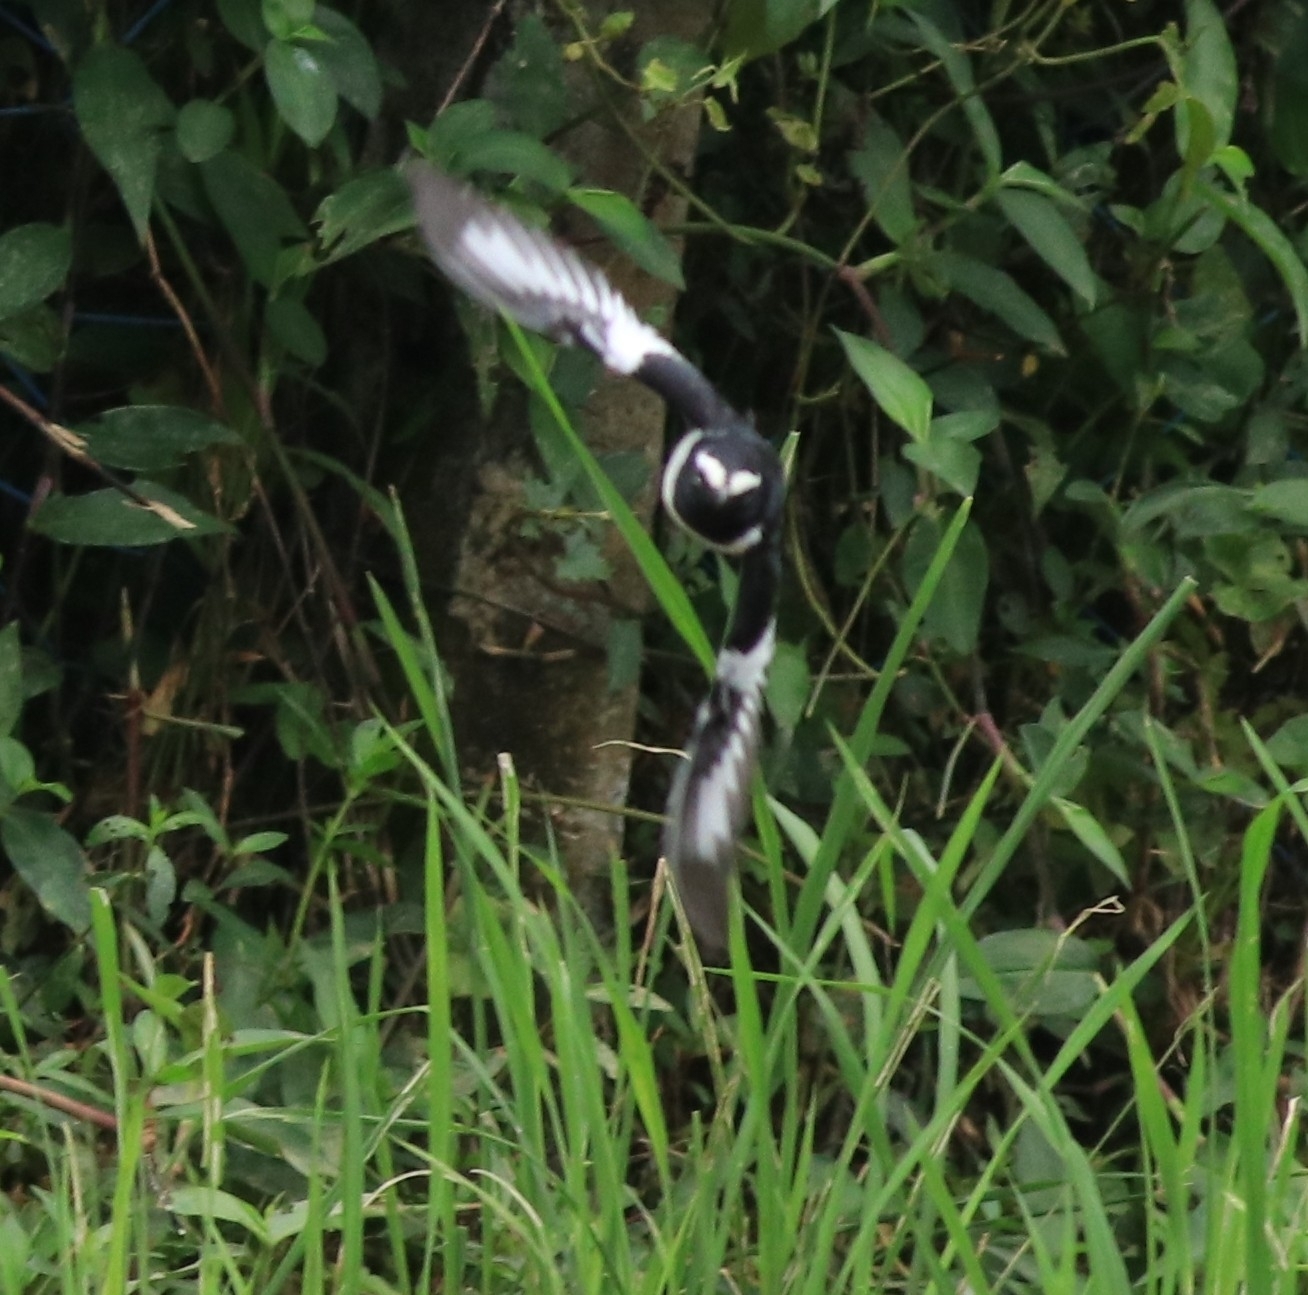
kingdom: Animalia
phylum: Chordata
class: Aves
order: Passeriformes
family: Motacillidae
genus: Motacilla
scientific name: Motacilla maderaspatensis
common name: White-browed wagtail
